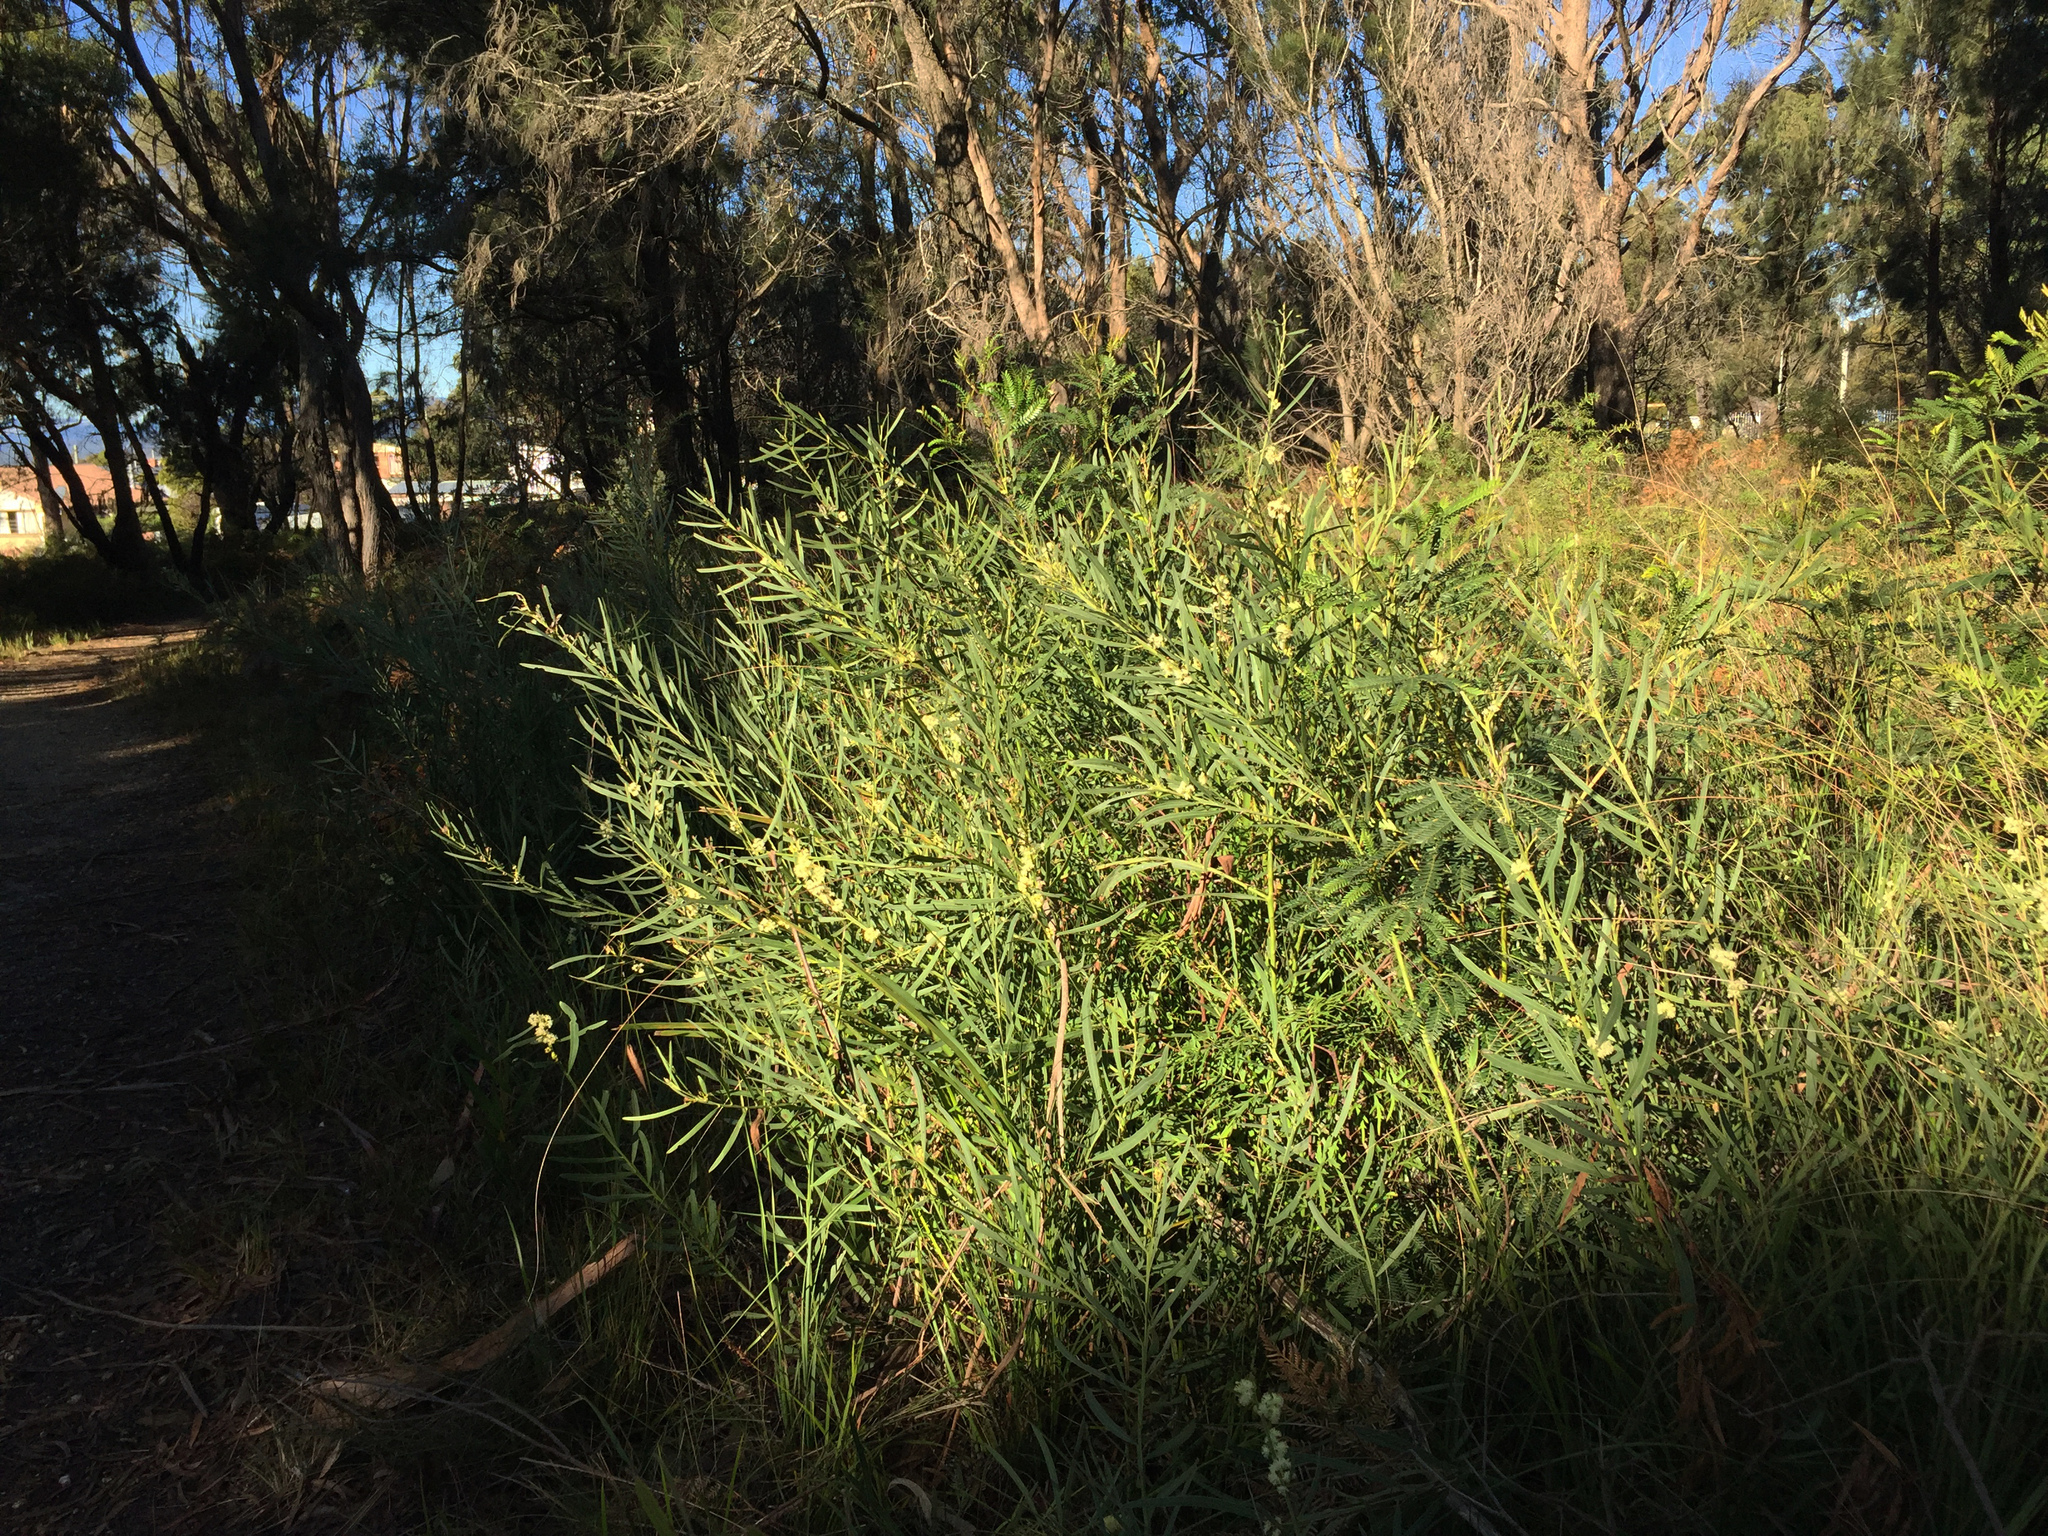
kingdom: Plantae
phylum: Tracheophyta
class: Magnoliopsida
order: Fabales
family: Fabaceae
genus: Acacia
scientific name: Acacia suaveolens
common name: Sweet acacia
